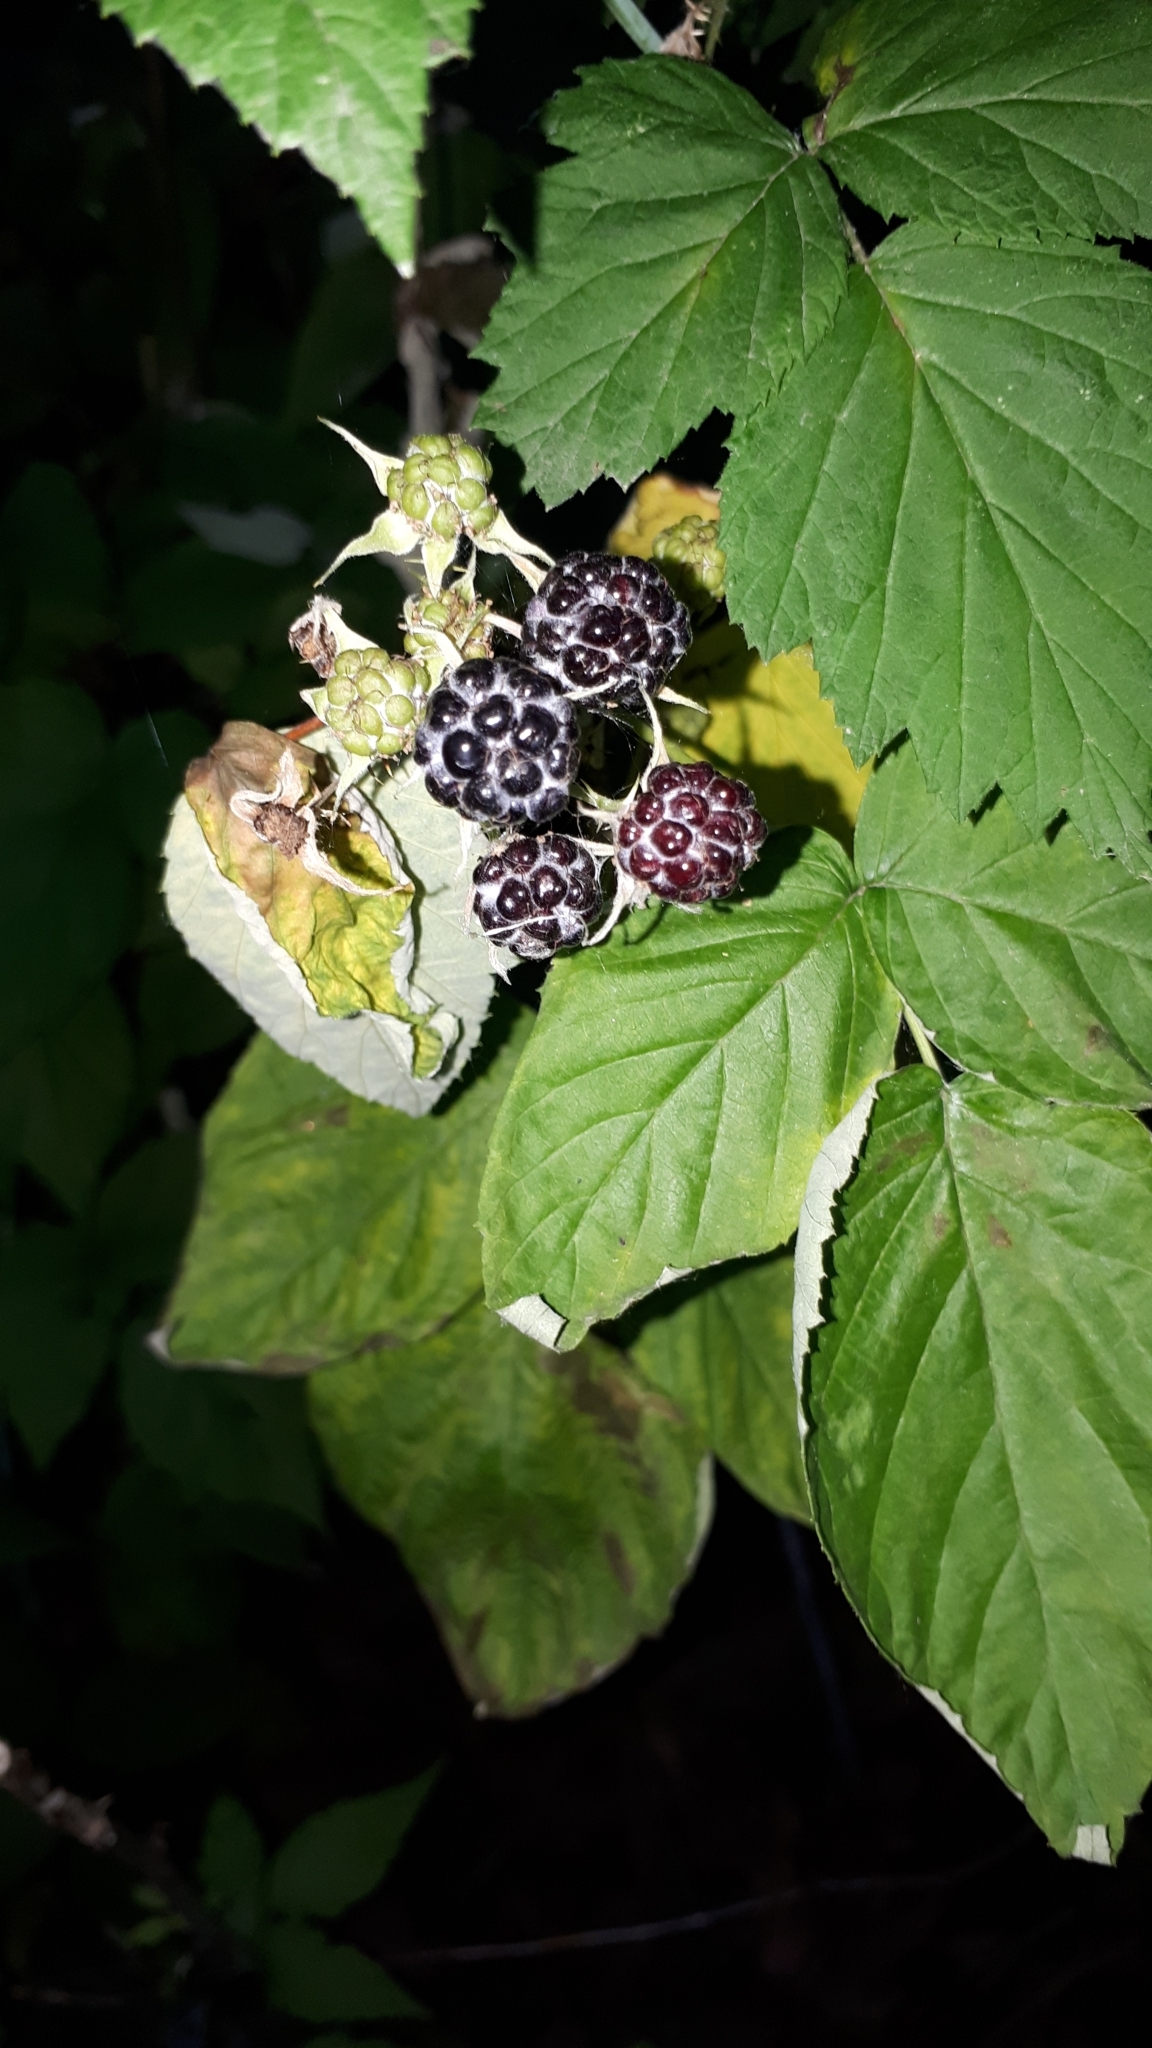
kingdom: Plantae
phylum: Tracheophyta
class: Magnoliopsida
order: Rosales
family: Rosaceae
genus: Rubus
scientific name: Rubus occidentalis
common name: Black raspberry
